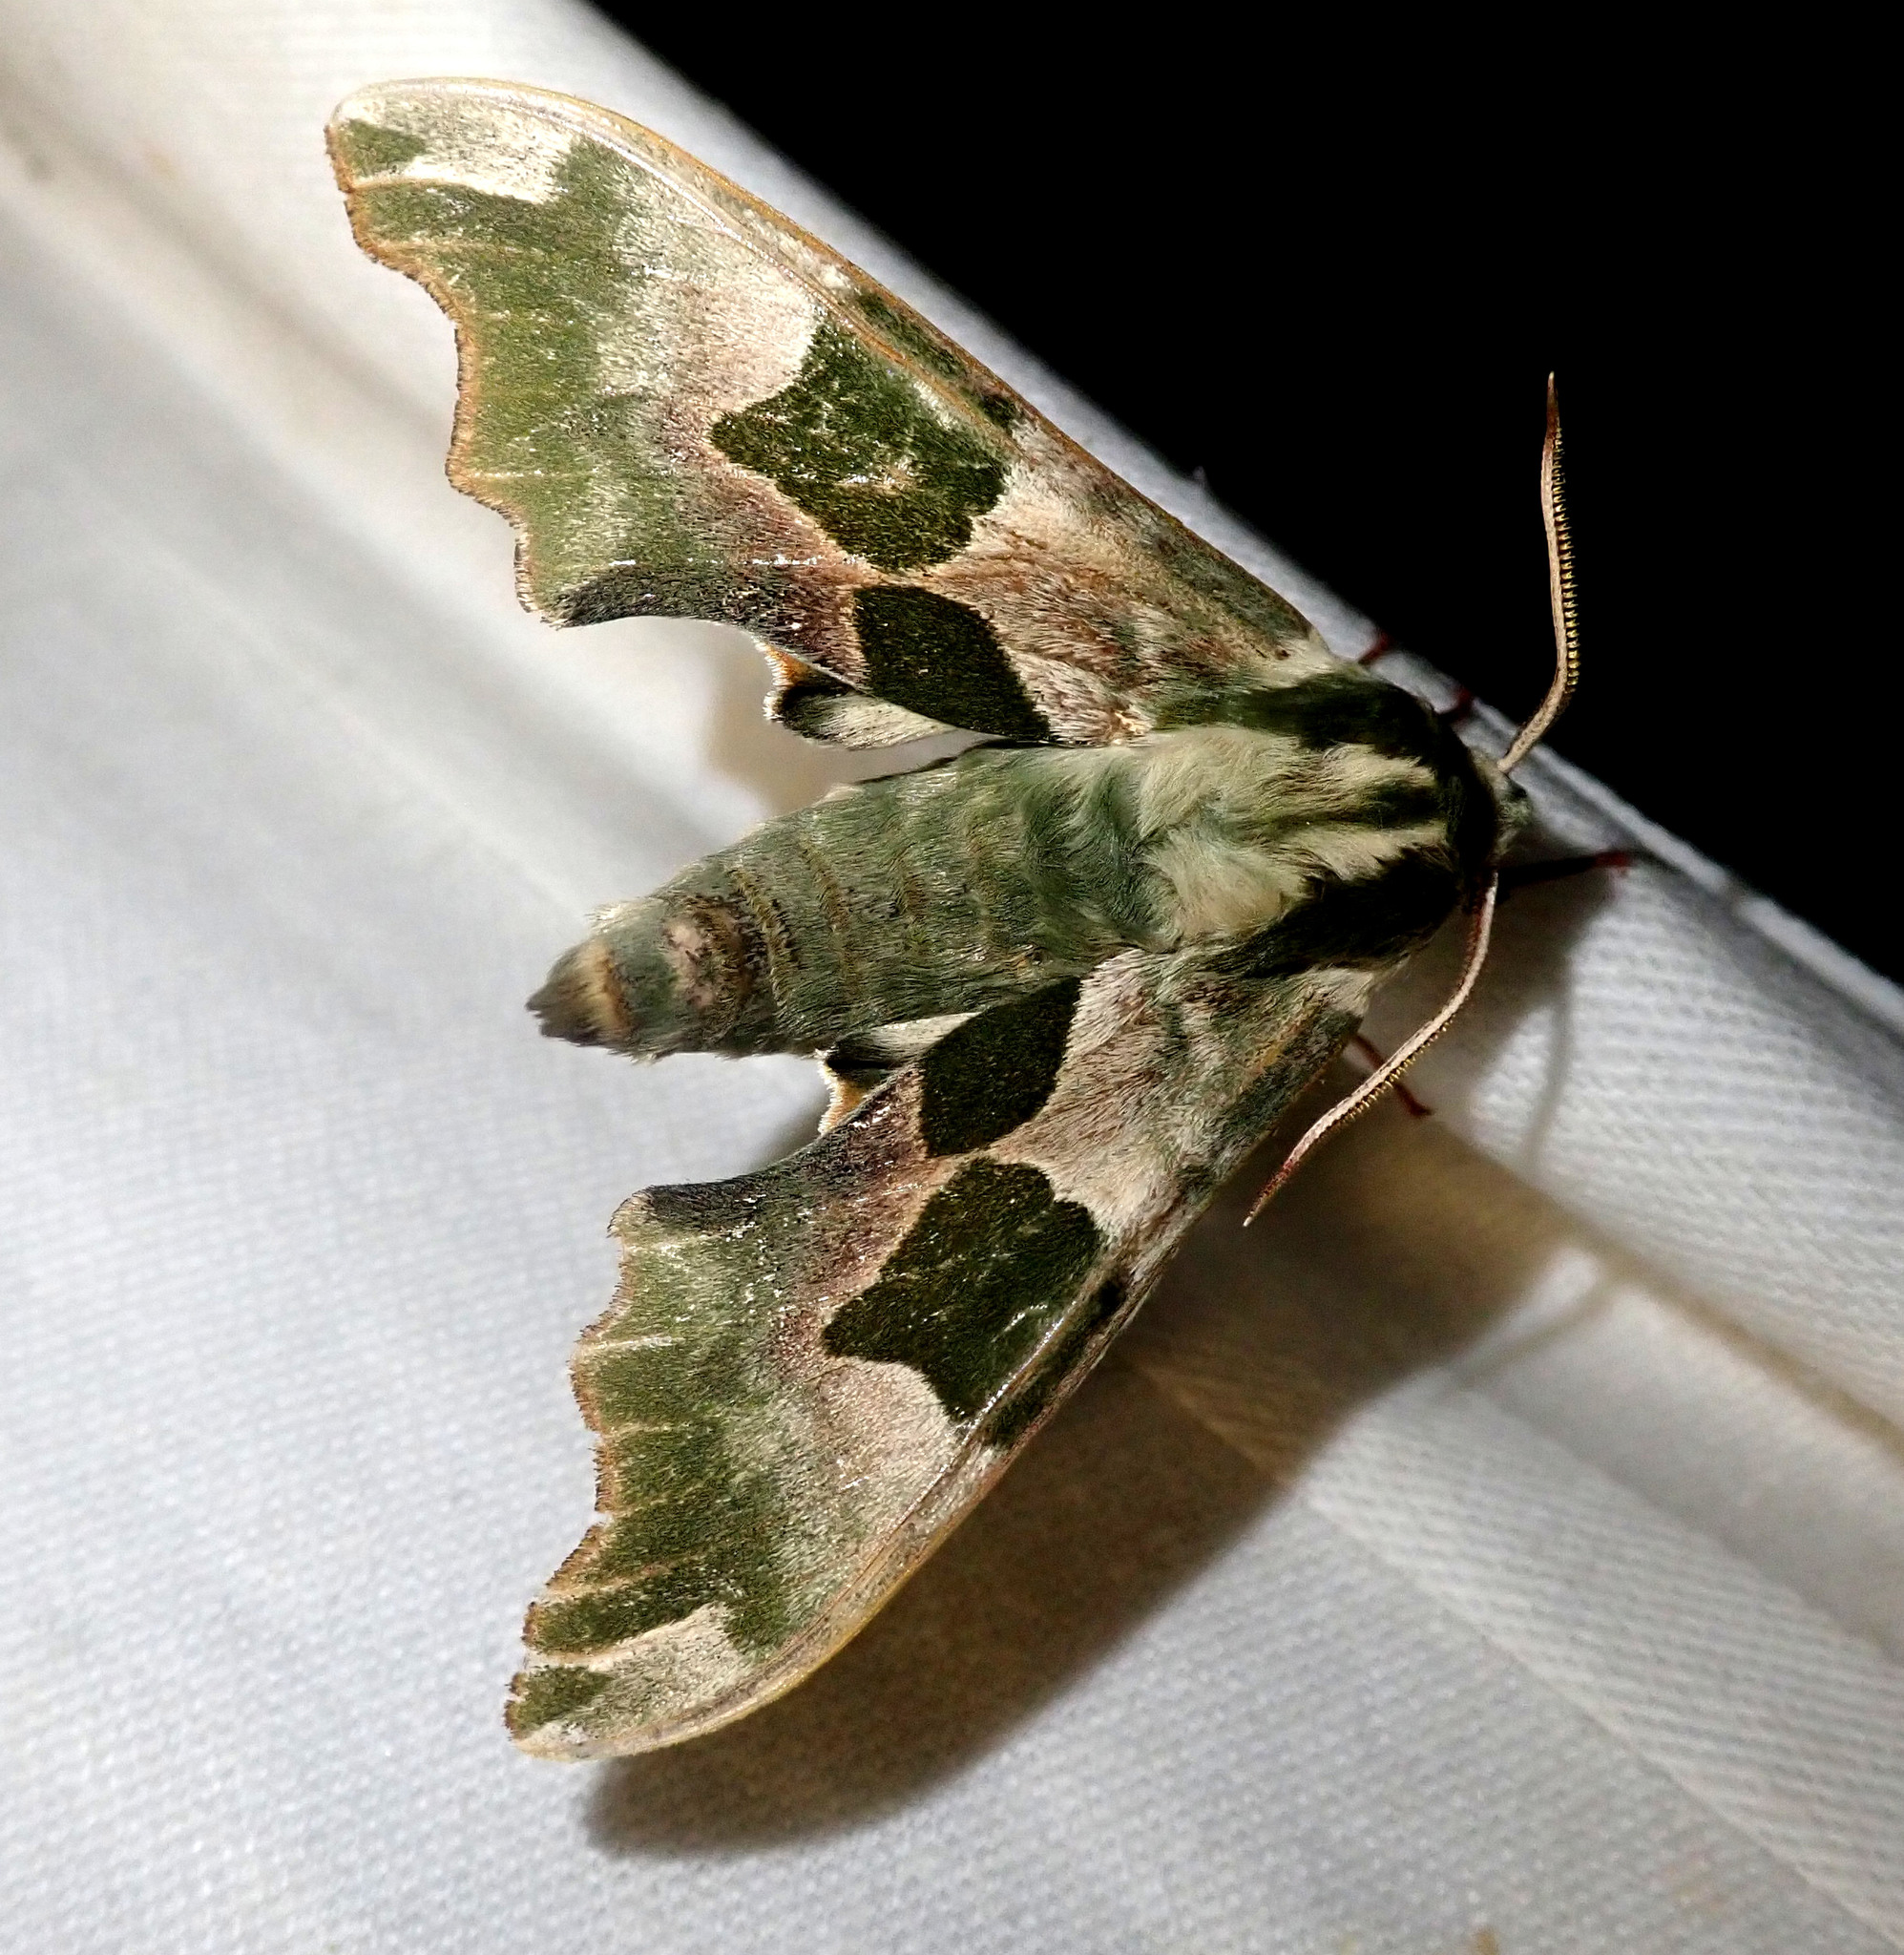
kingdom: Animalia
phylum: Arthropoda
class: Insecta
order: Lepidoptera
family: Sphingidae
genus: Mimas
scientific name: Mimas tiliae
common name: Lime hawk-moth
